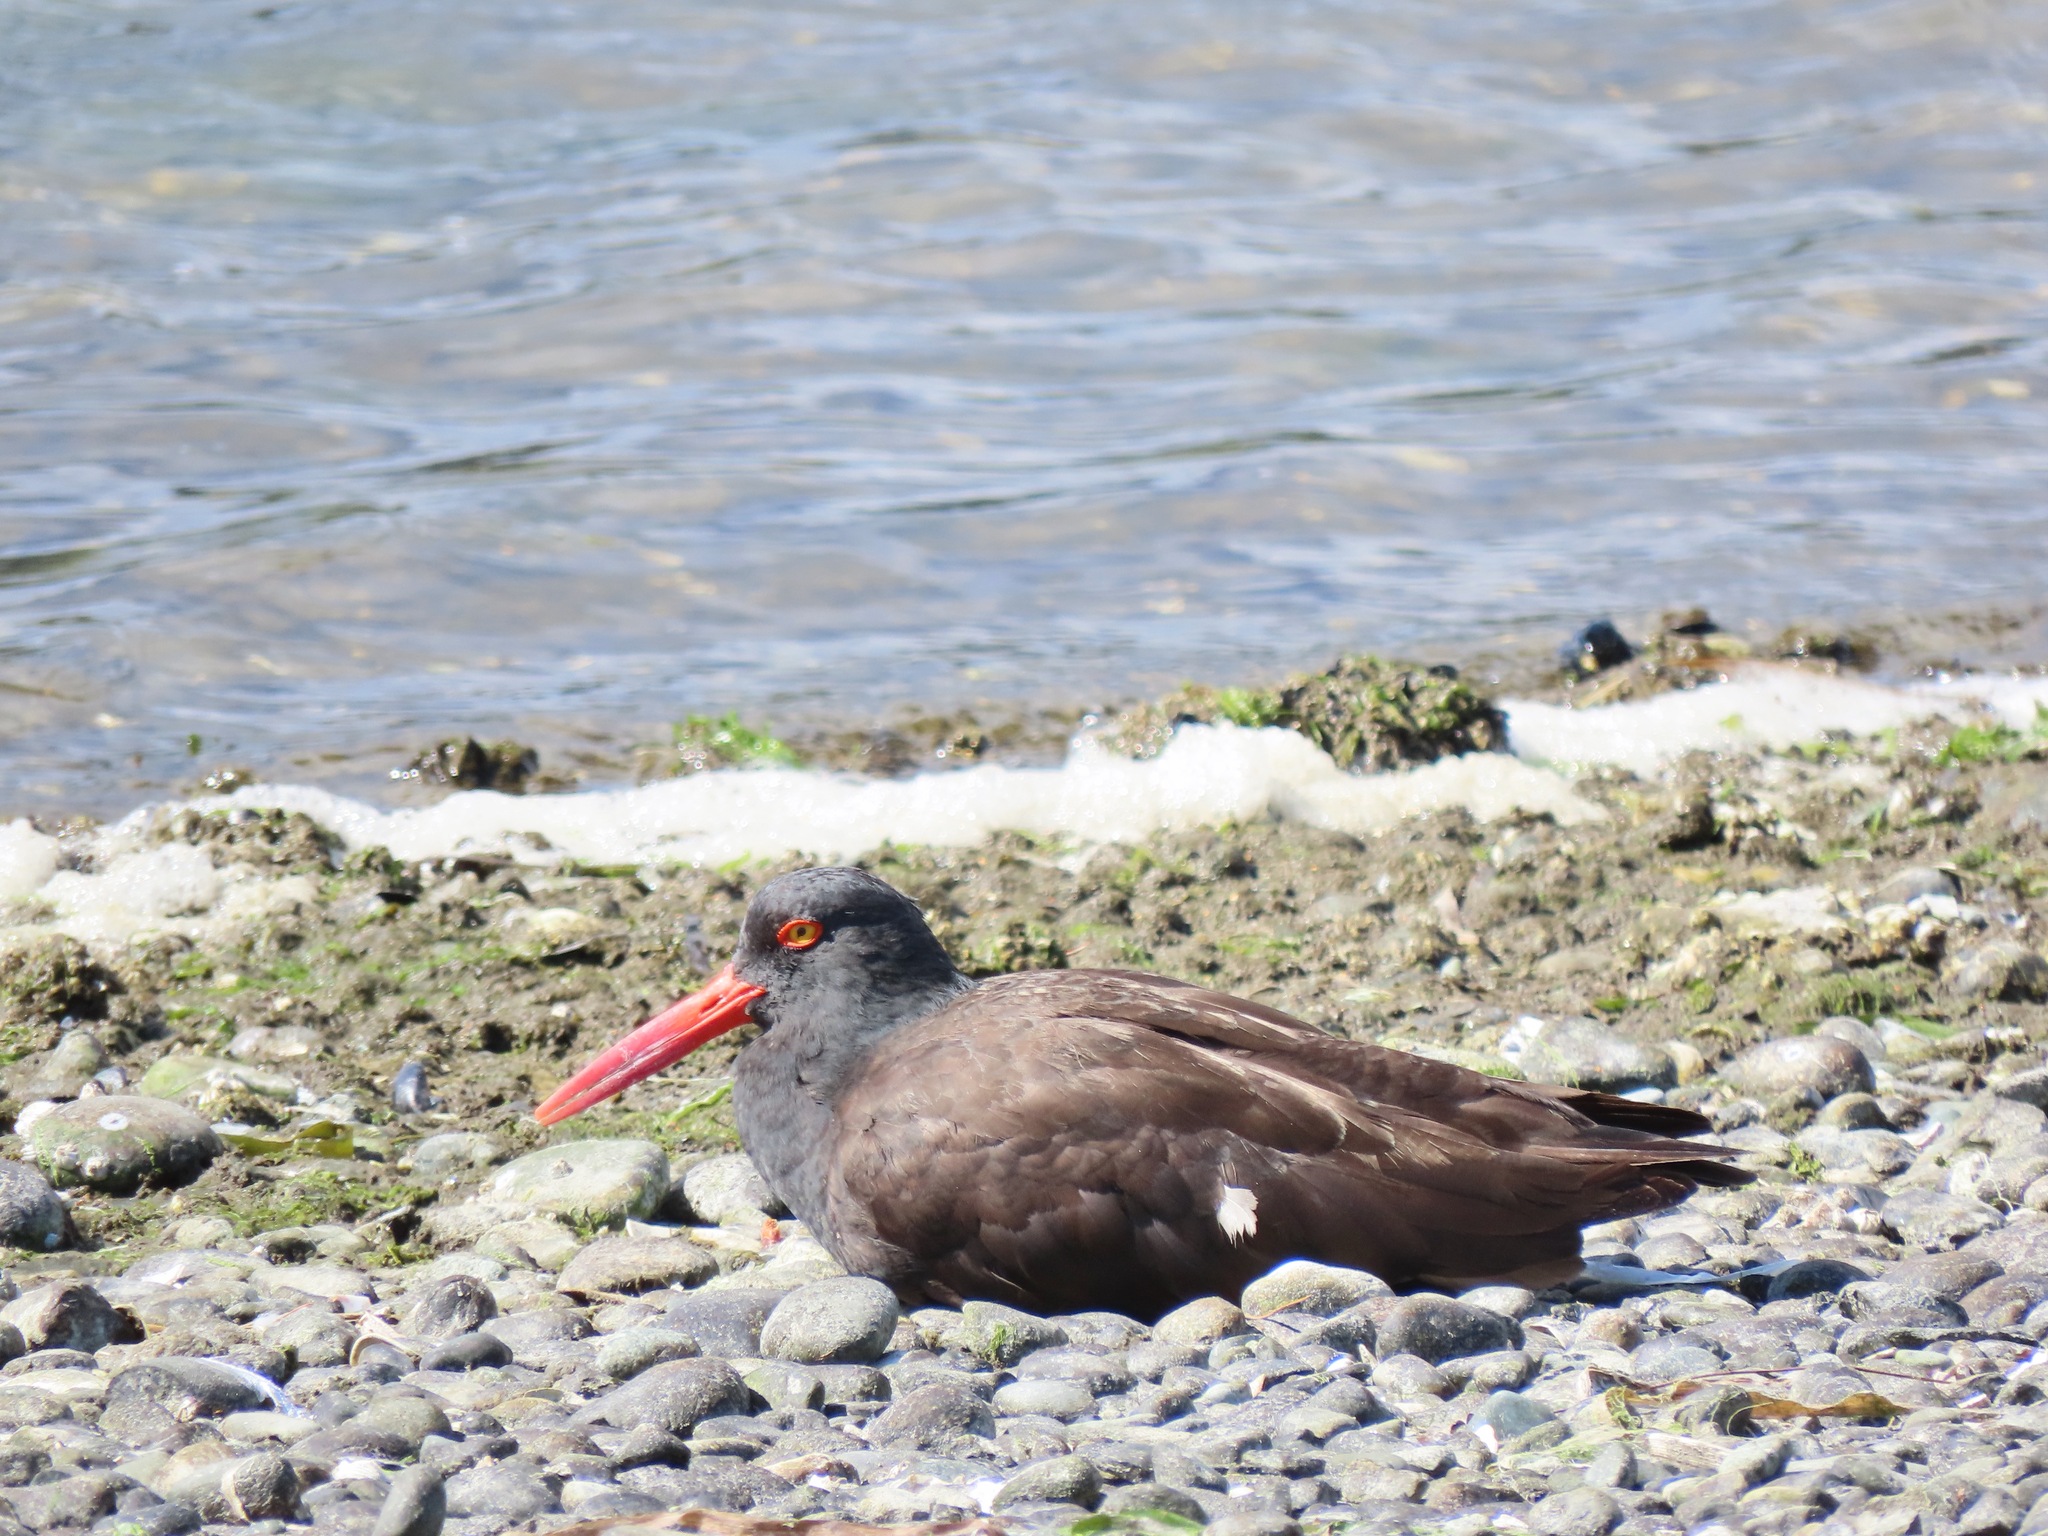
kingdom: Animalia
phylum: Chordata
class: Aves
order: Charadriiformes
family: Haematopodidae
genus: Haematopus
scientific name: Haematopus bachmani
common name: Black oystercatcher
